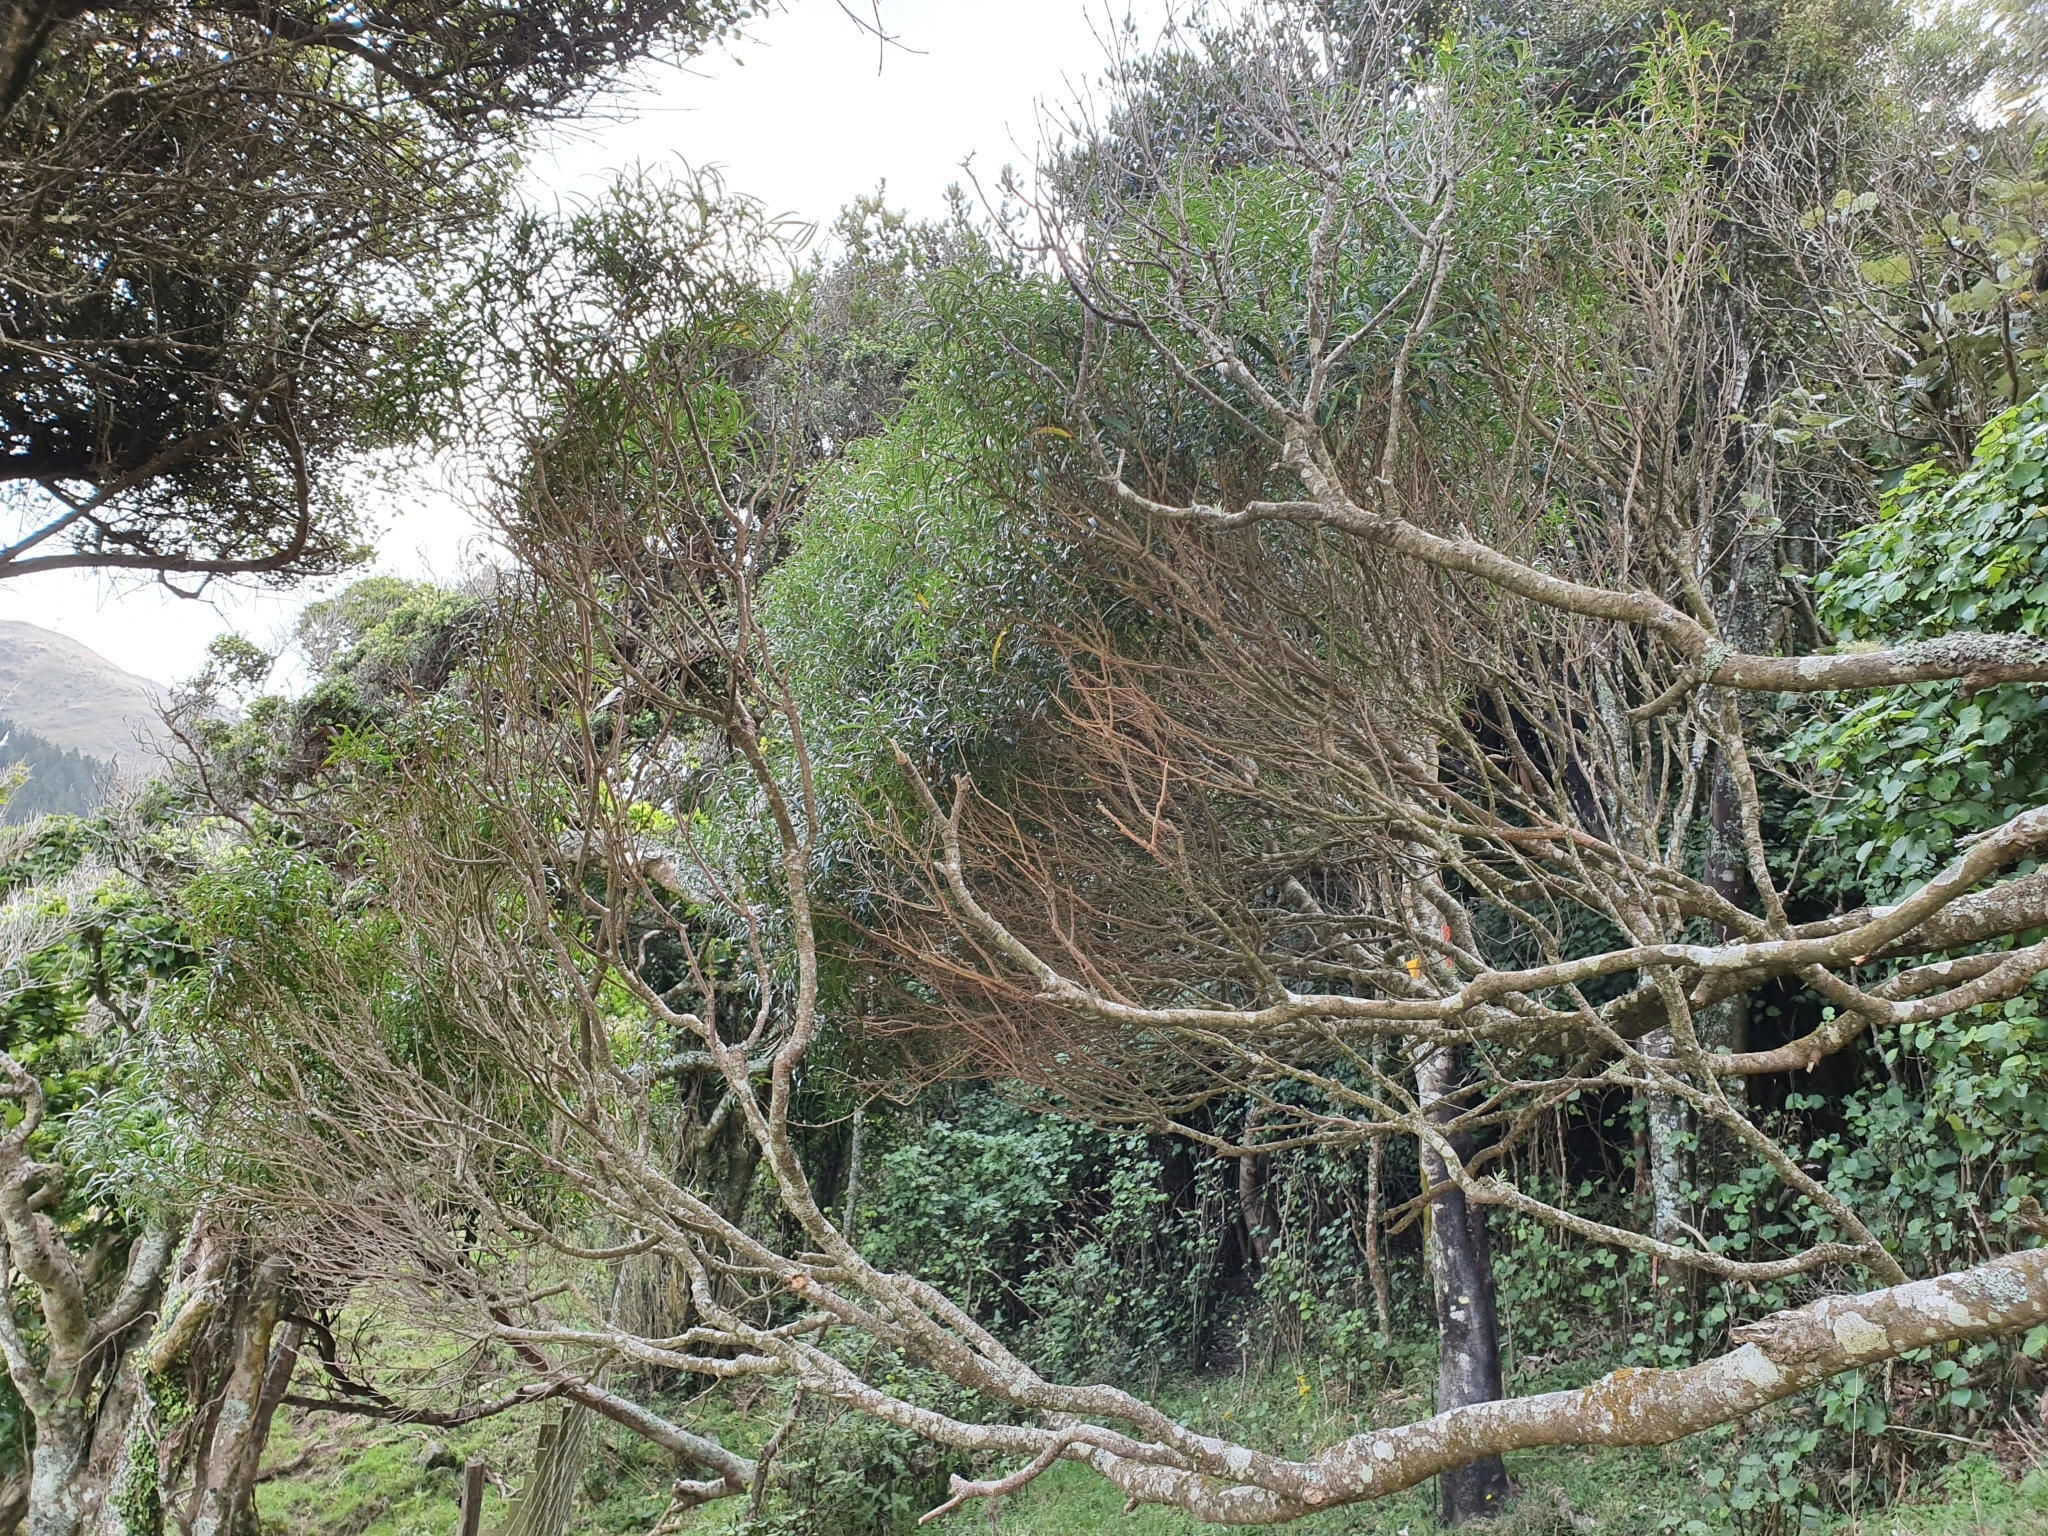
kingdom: Plantae
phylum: Tracheophyta
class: Magnoliopsida
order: Lamiales
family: Oleaceae
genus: Nestegis
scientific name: Nestegis montana
